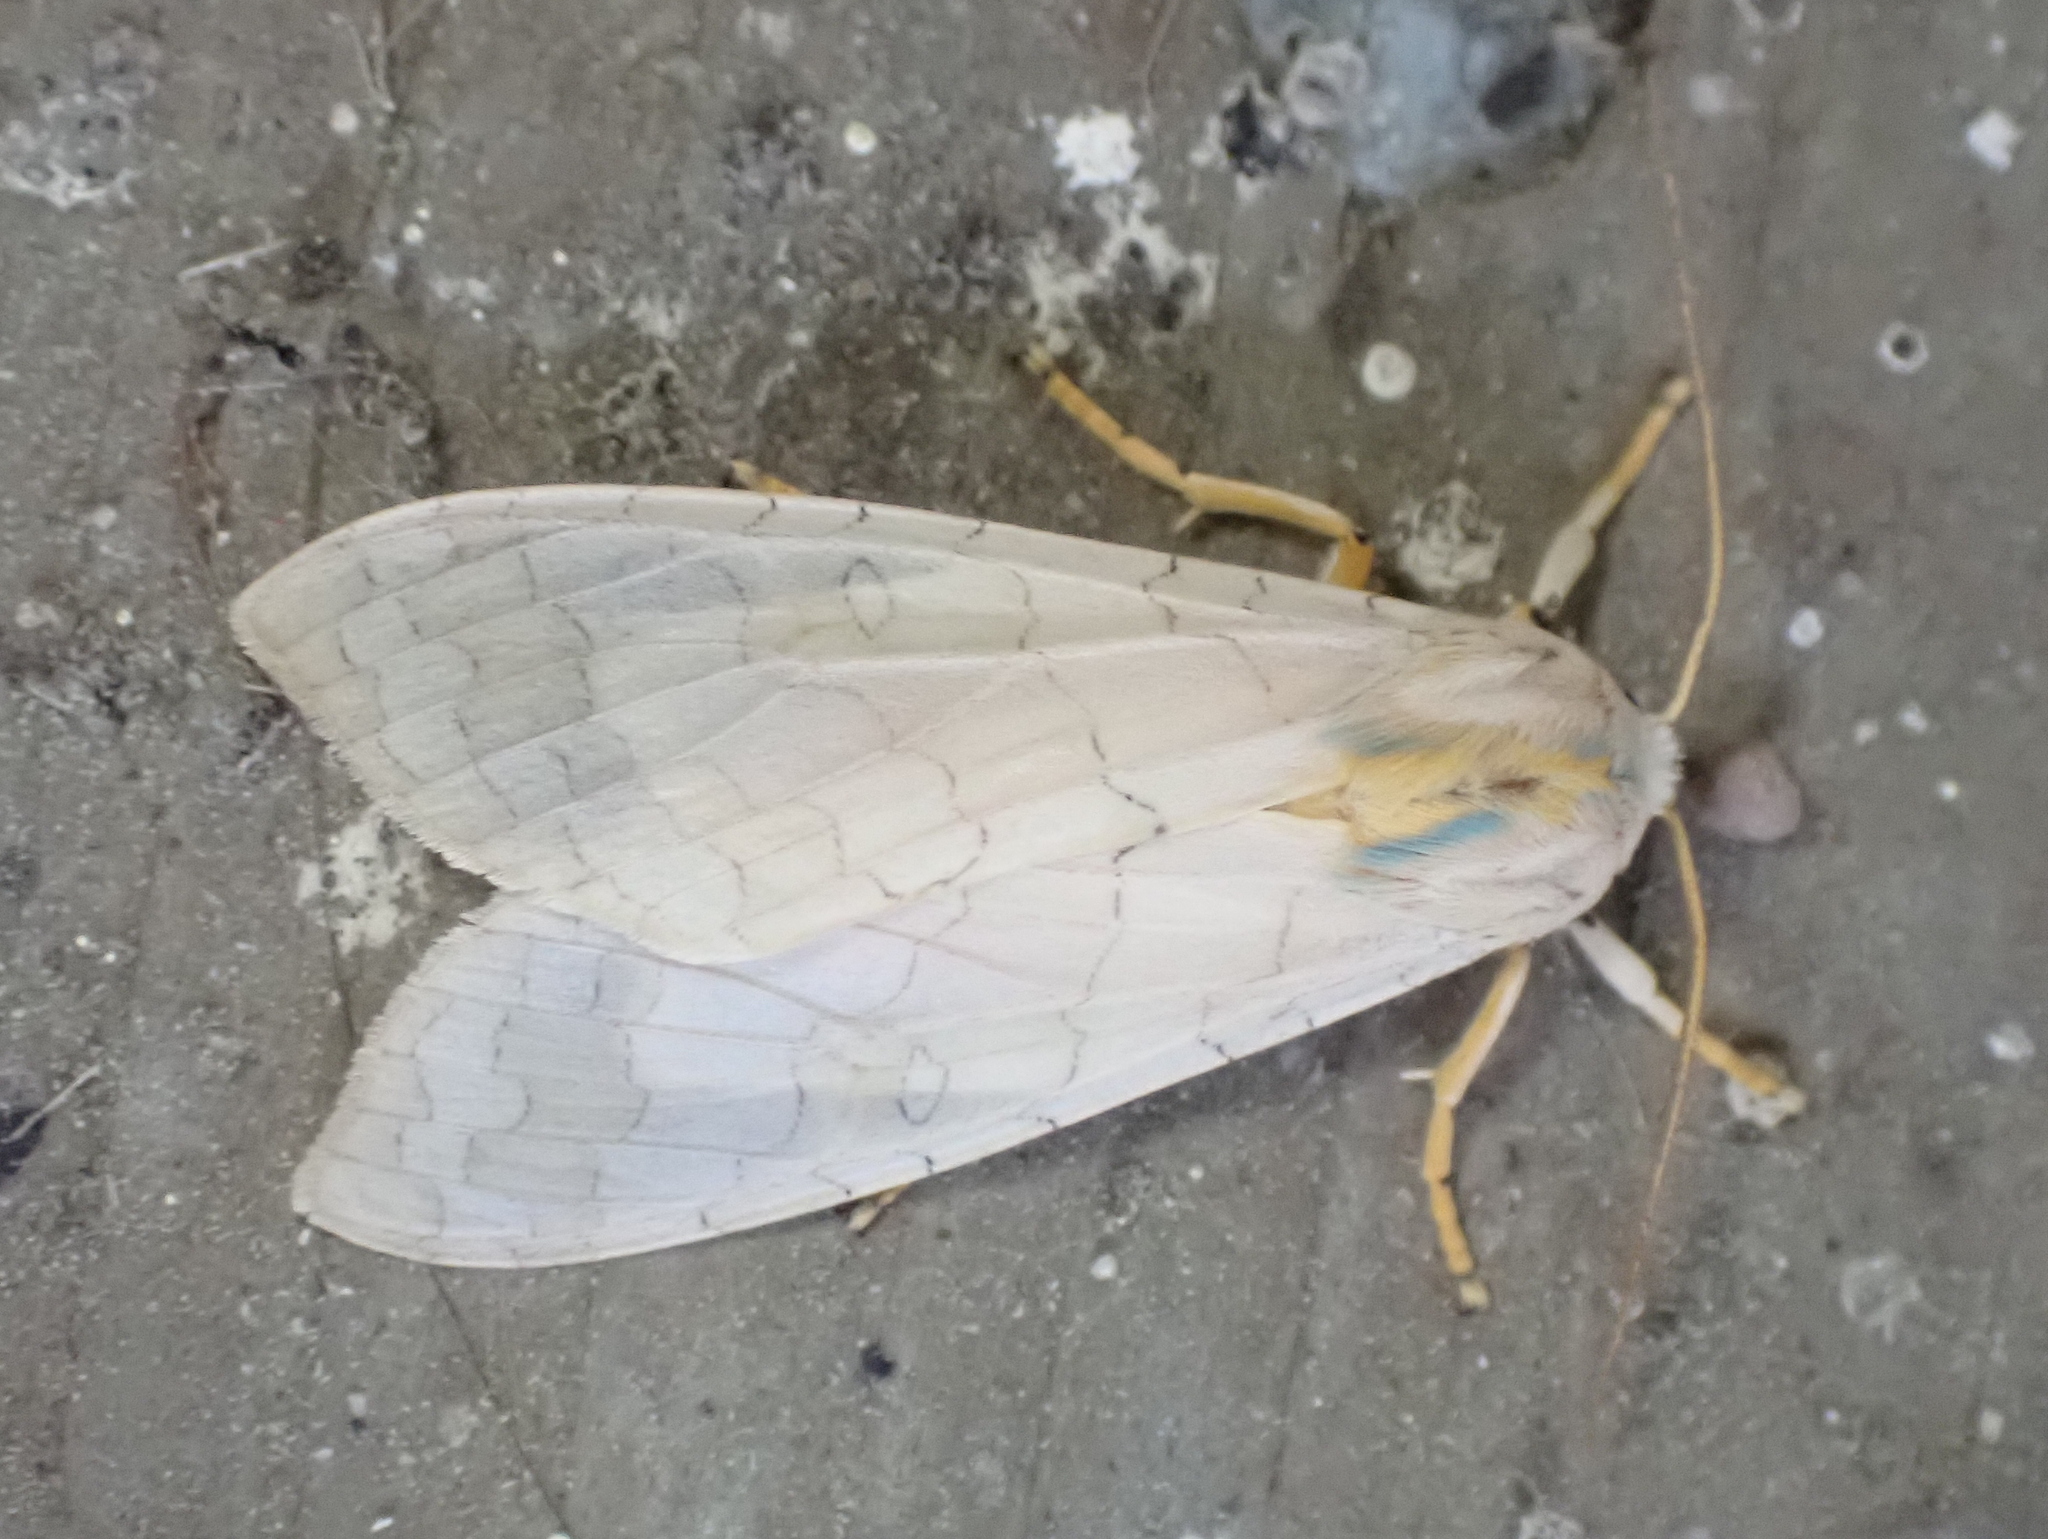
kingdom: Animalia
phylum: Arthropoda
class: Insecta
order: Lepidoptera
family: Erebidae
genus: Halysidota
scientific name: Halysidota tessellaris
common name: Banded tussock moth
